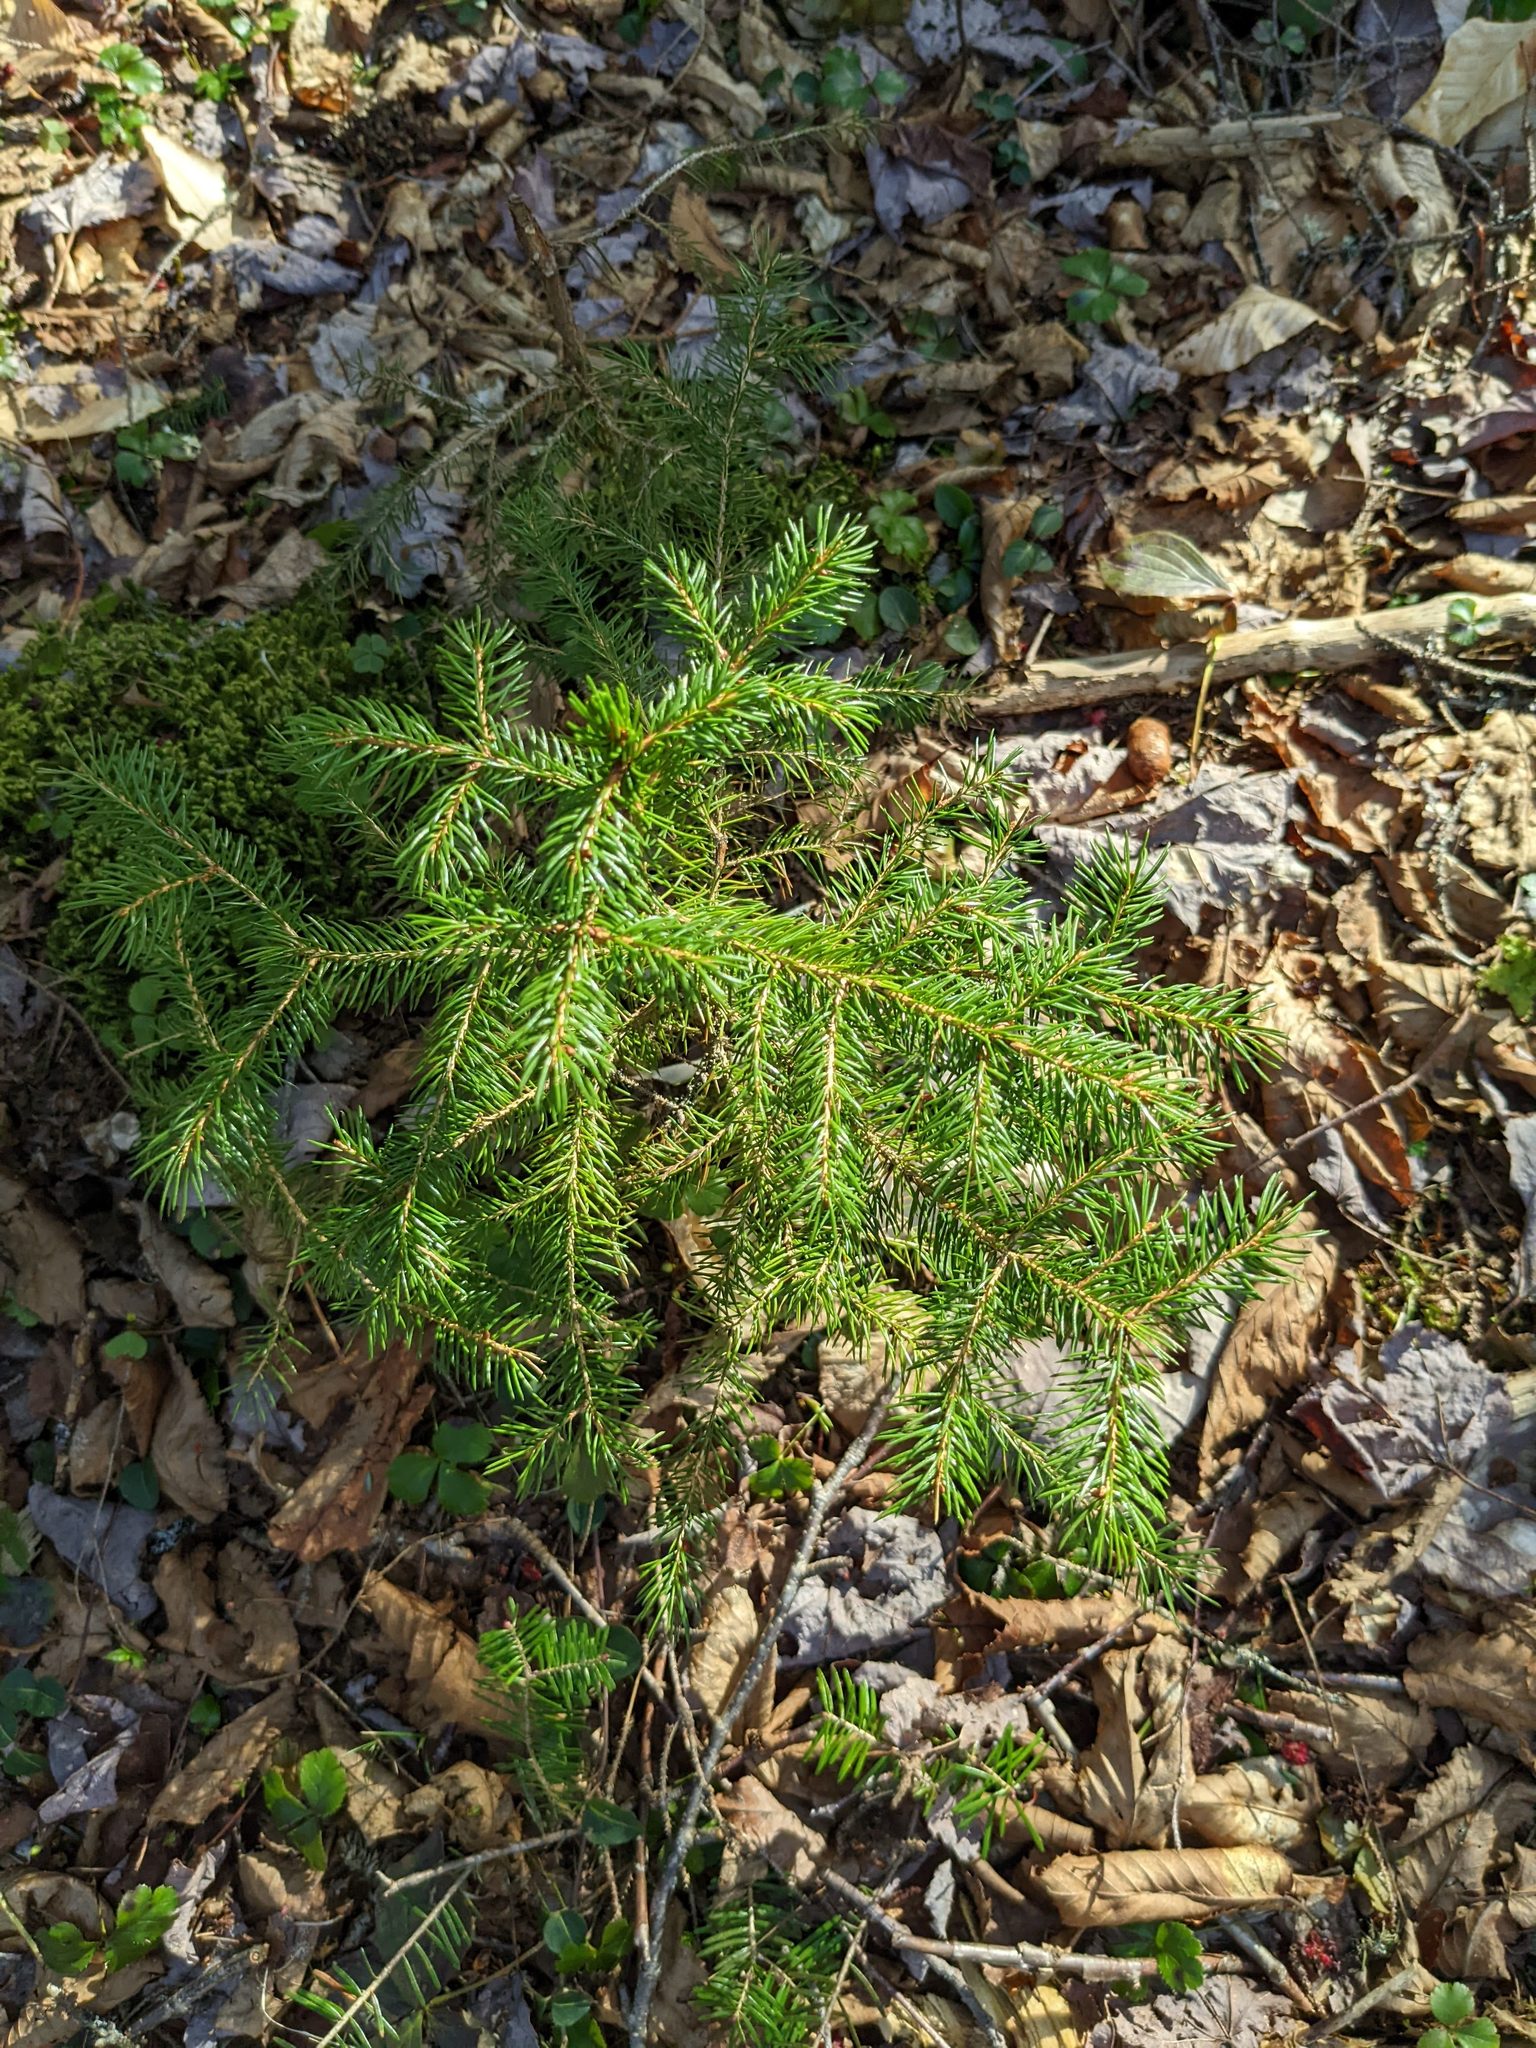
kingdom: Plantae
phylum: Tracheophyta
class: Pinopsida
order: Pinales
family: Pinaceae
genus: Picea
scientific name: Picea rubens
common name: Red spruce
